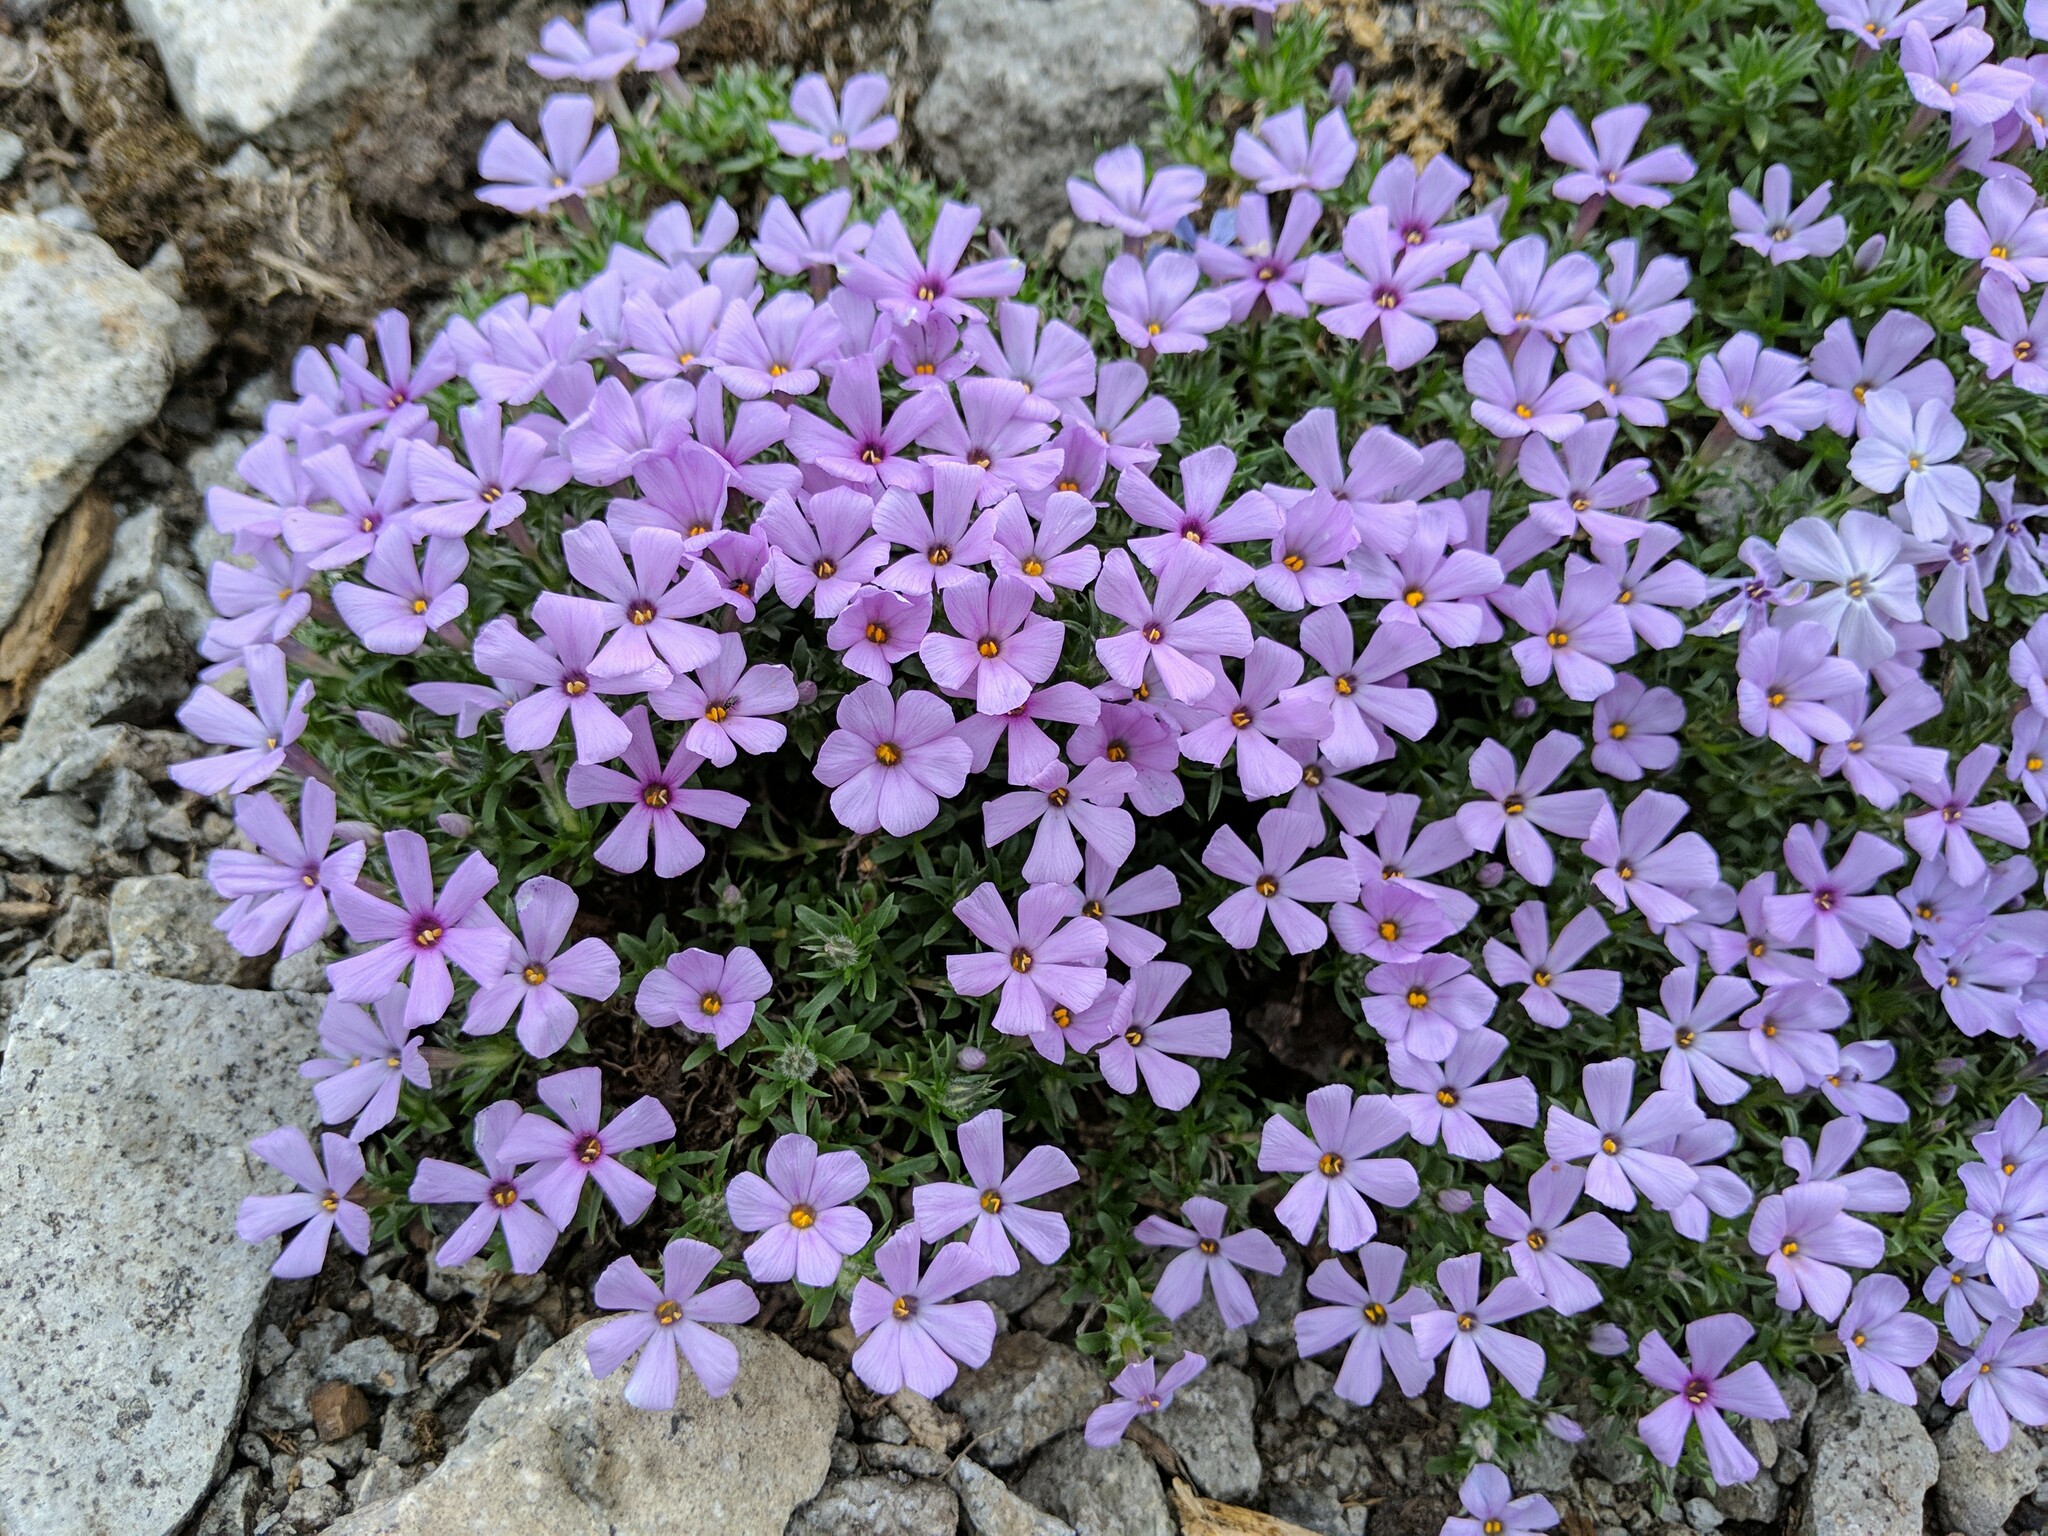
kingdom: Plantae
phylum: Tracheophyta
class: Magnoliopsida
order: Ericales
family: Polemoniaceae
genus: Phlox
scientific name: Phlox diffusa
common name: Mat phlox
